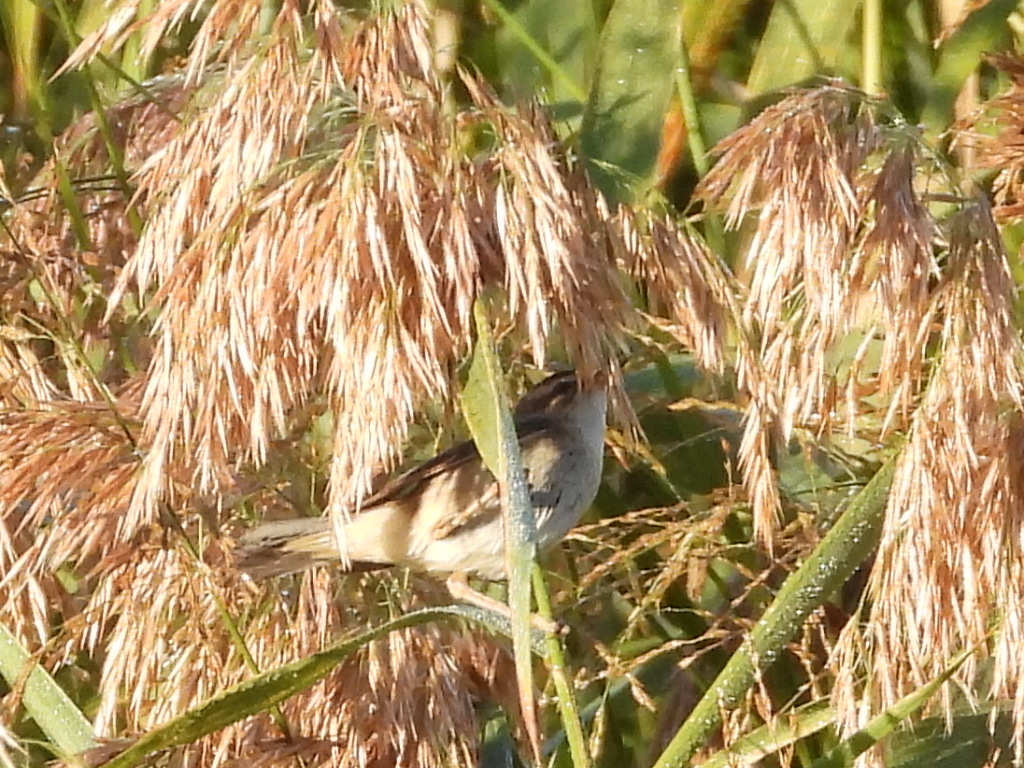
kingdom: Animalia
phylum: Chordata
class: Aves
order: Passeriformes
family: Acrocephalidae
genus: Acrocephalus
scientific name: Acrocephalus schoenobaenus
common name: Sedge warbler
